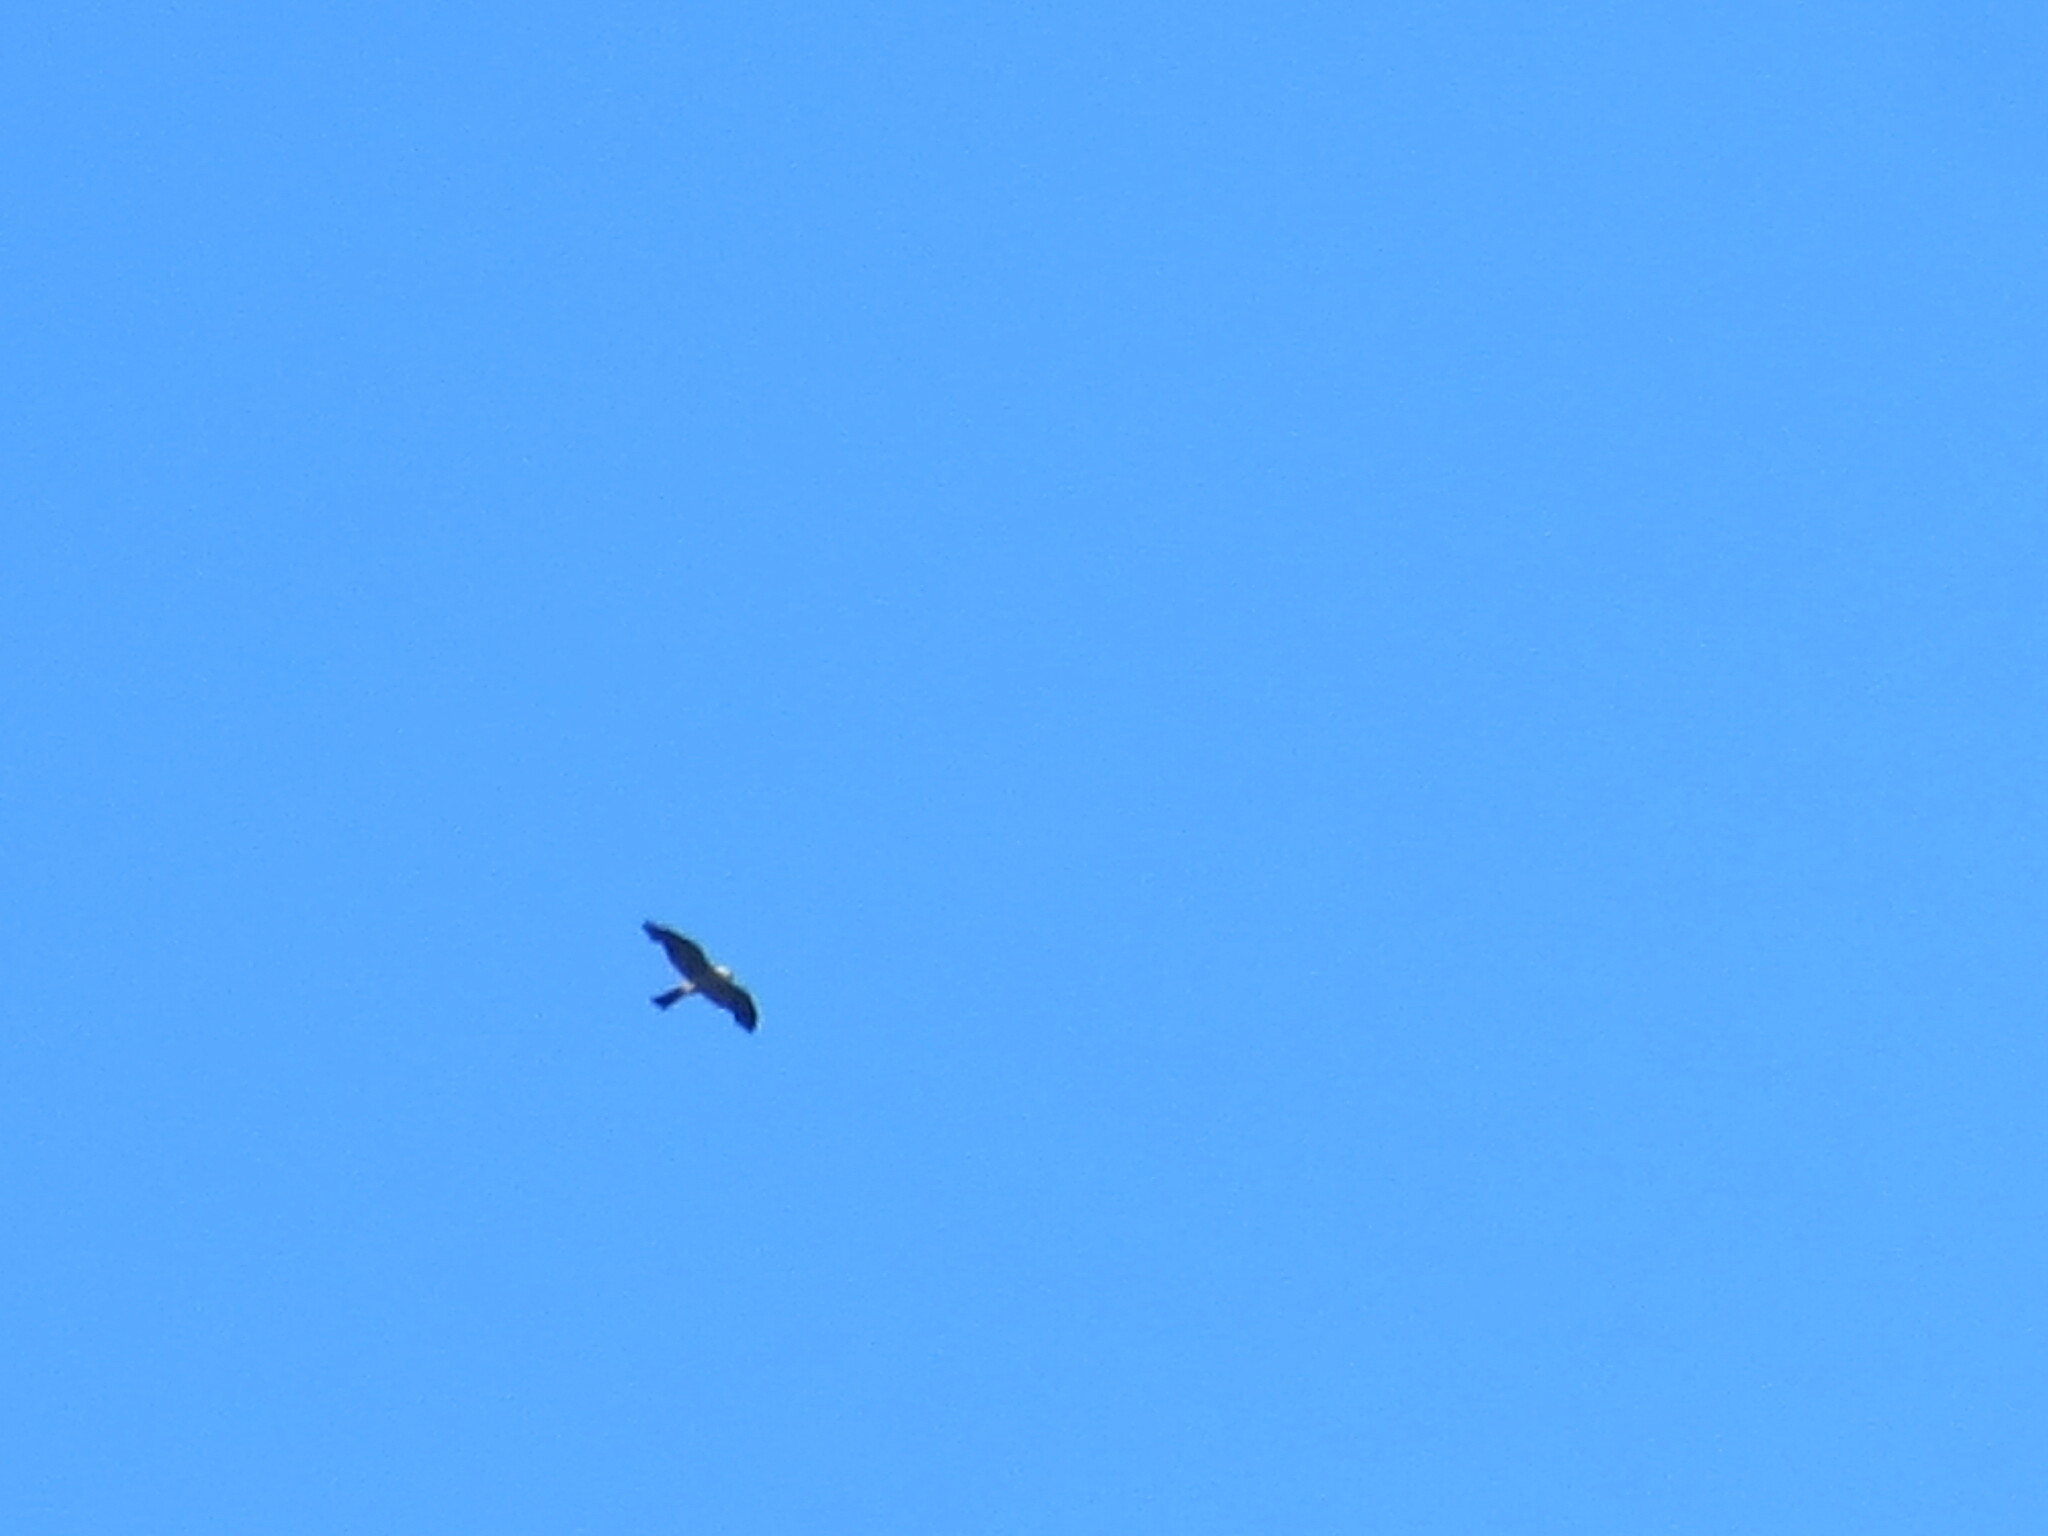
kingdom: Animalia
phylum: Chordata
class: Aves
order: Accipitriformes
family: Accipitridae
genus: Ictinia
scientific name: Ictinia mississippiensis
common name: Mississippi kite
